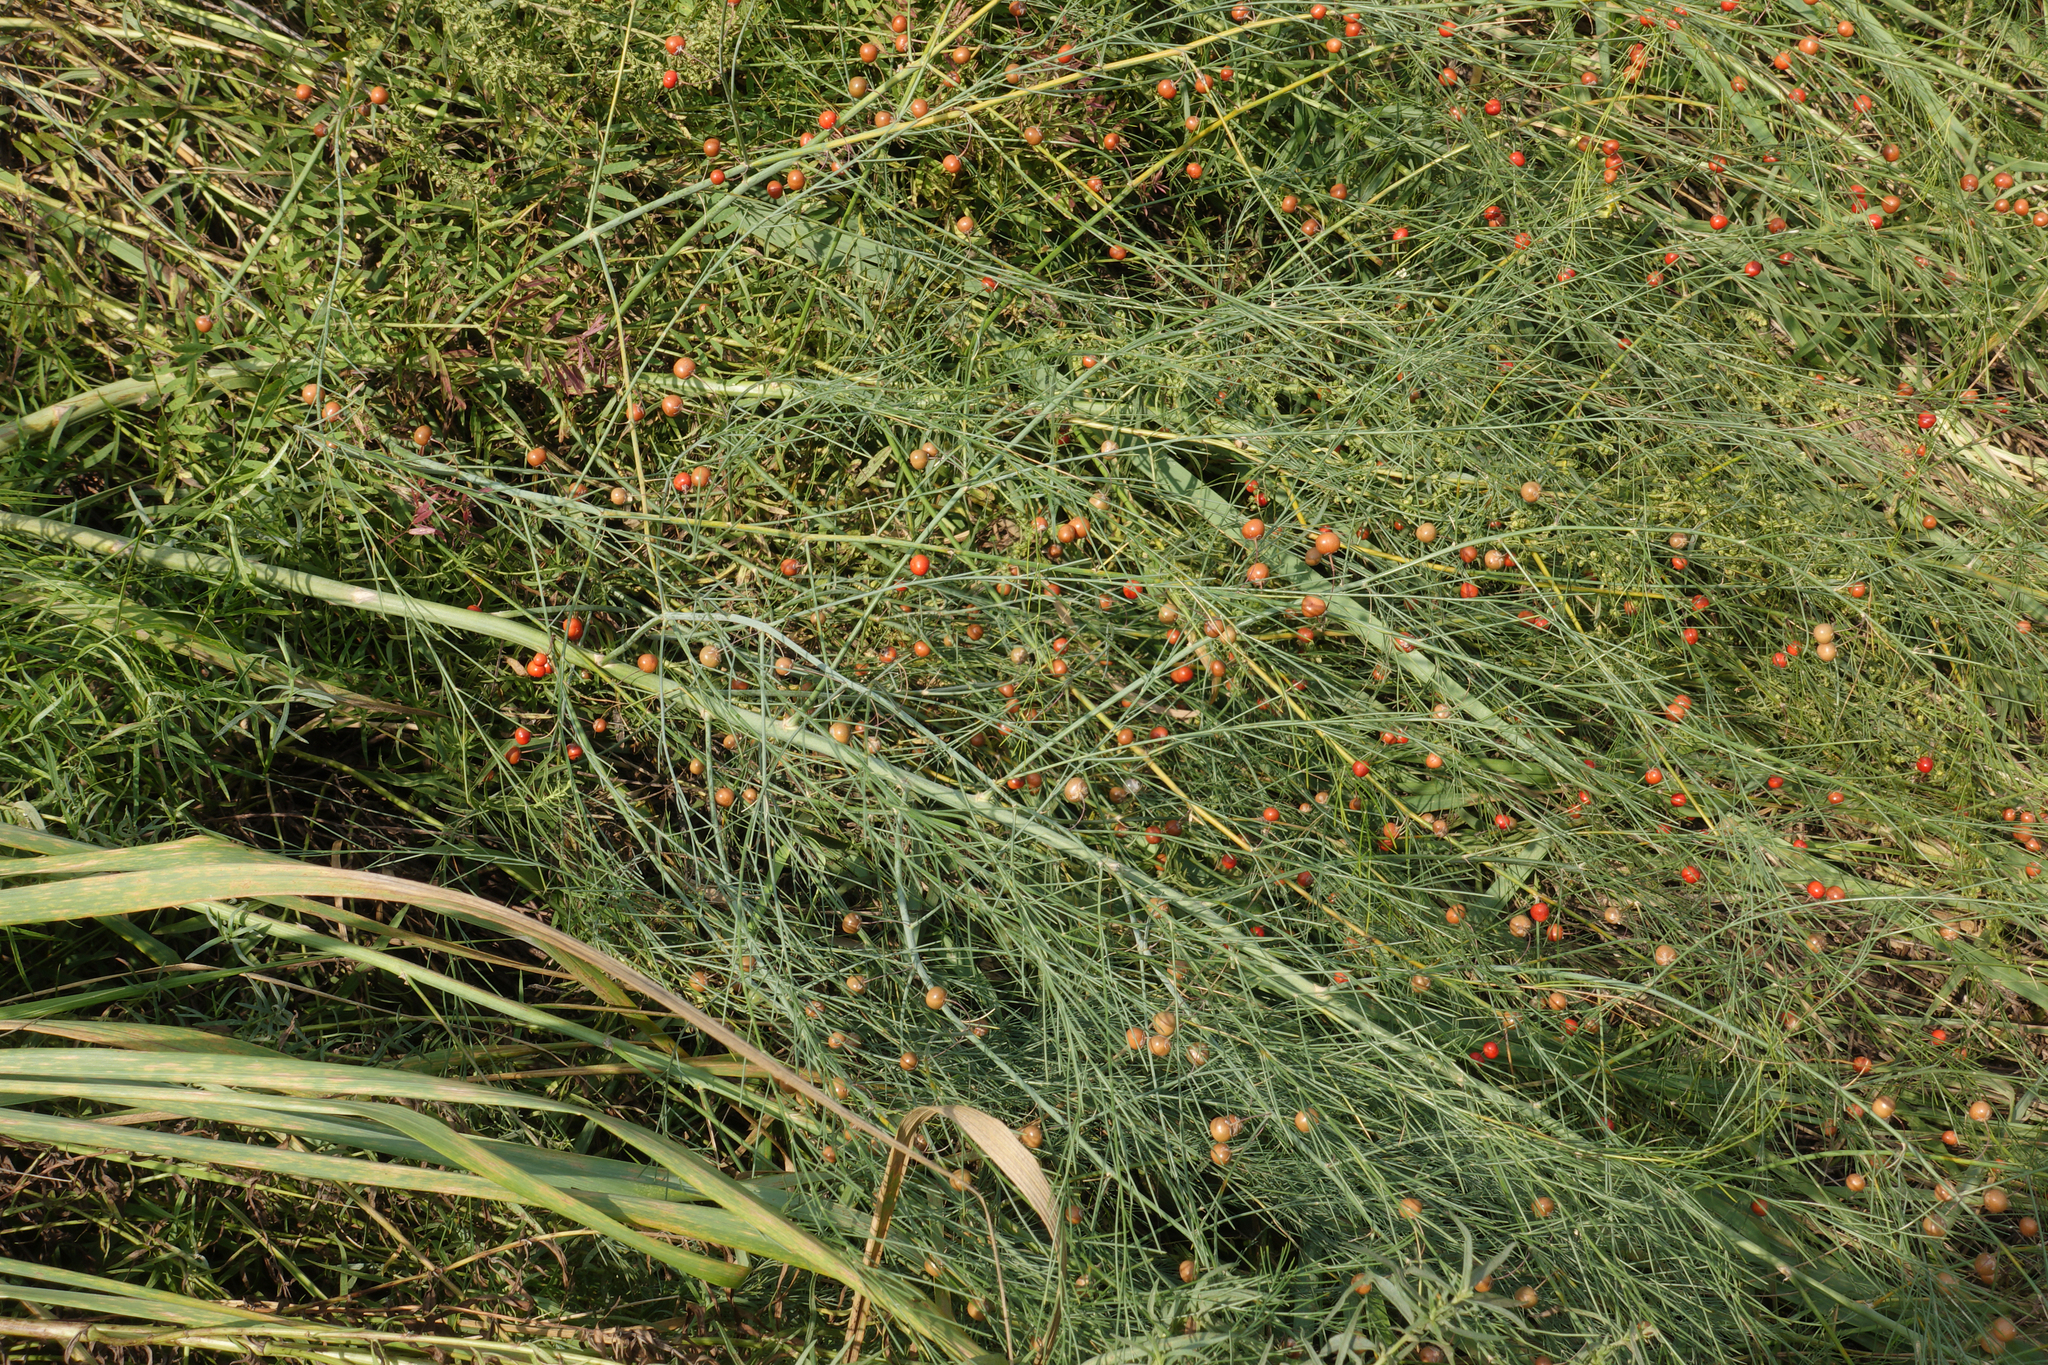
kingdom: Plantae
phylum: Tracheophyta
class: Liliopsida
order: Asparagales
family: Asparagaceae
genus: Asparagus
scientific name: Asparagus officinalis
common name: Garden asparagus
